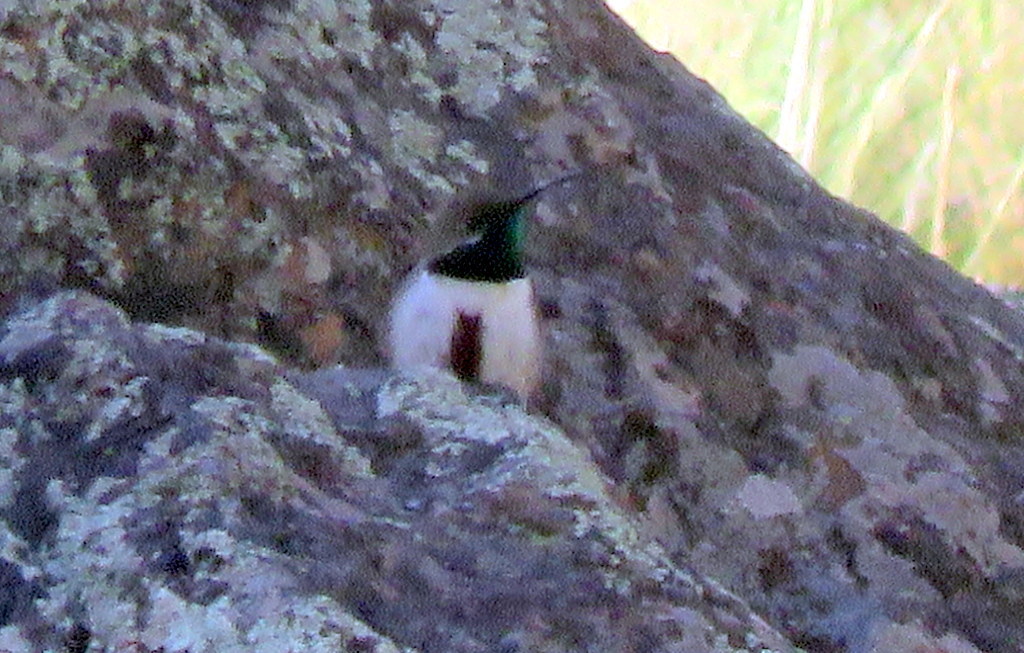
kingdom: Animalia
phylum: Chordata
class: Aves
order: Apodiformes
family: Trochilidae
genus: Oreotrochilus
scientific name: Oreotrochilus estella
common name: Andean hillstar
